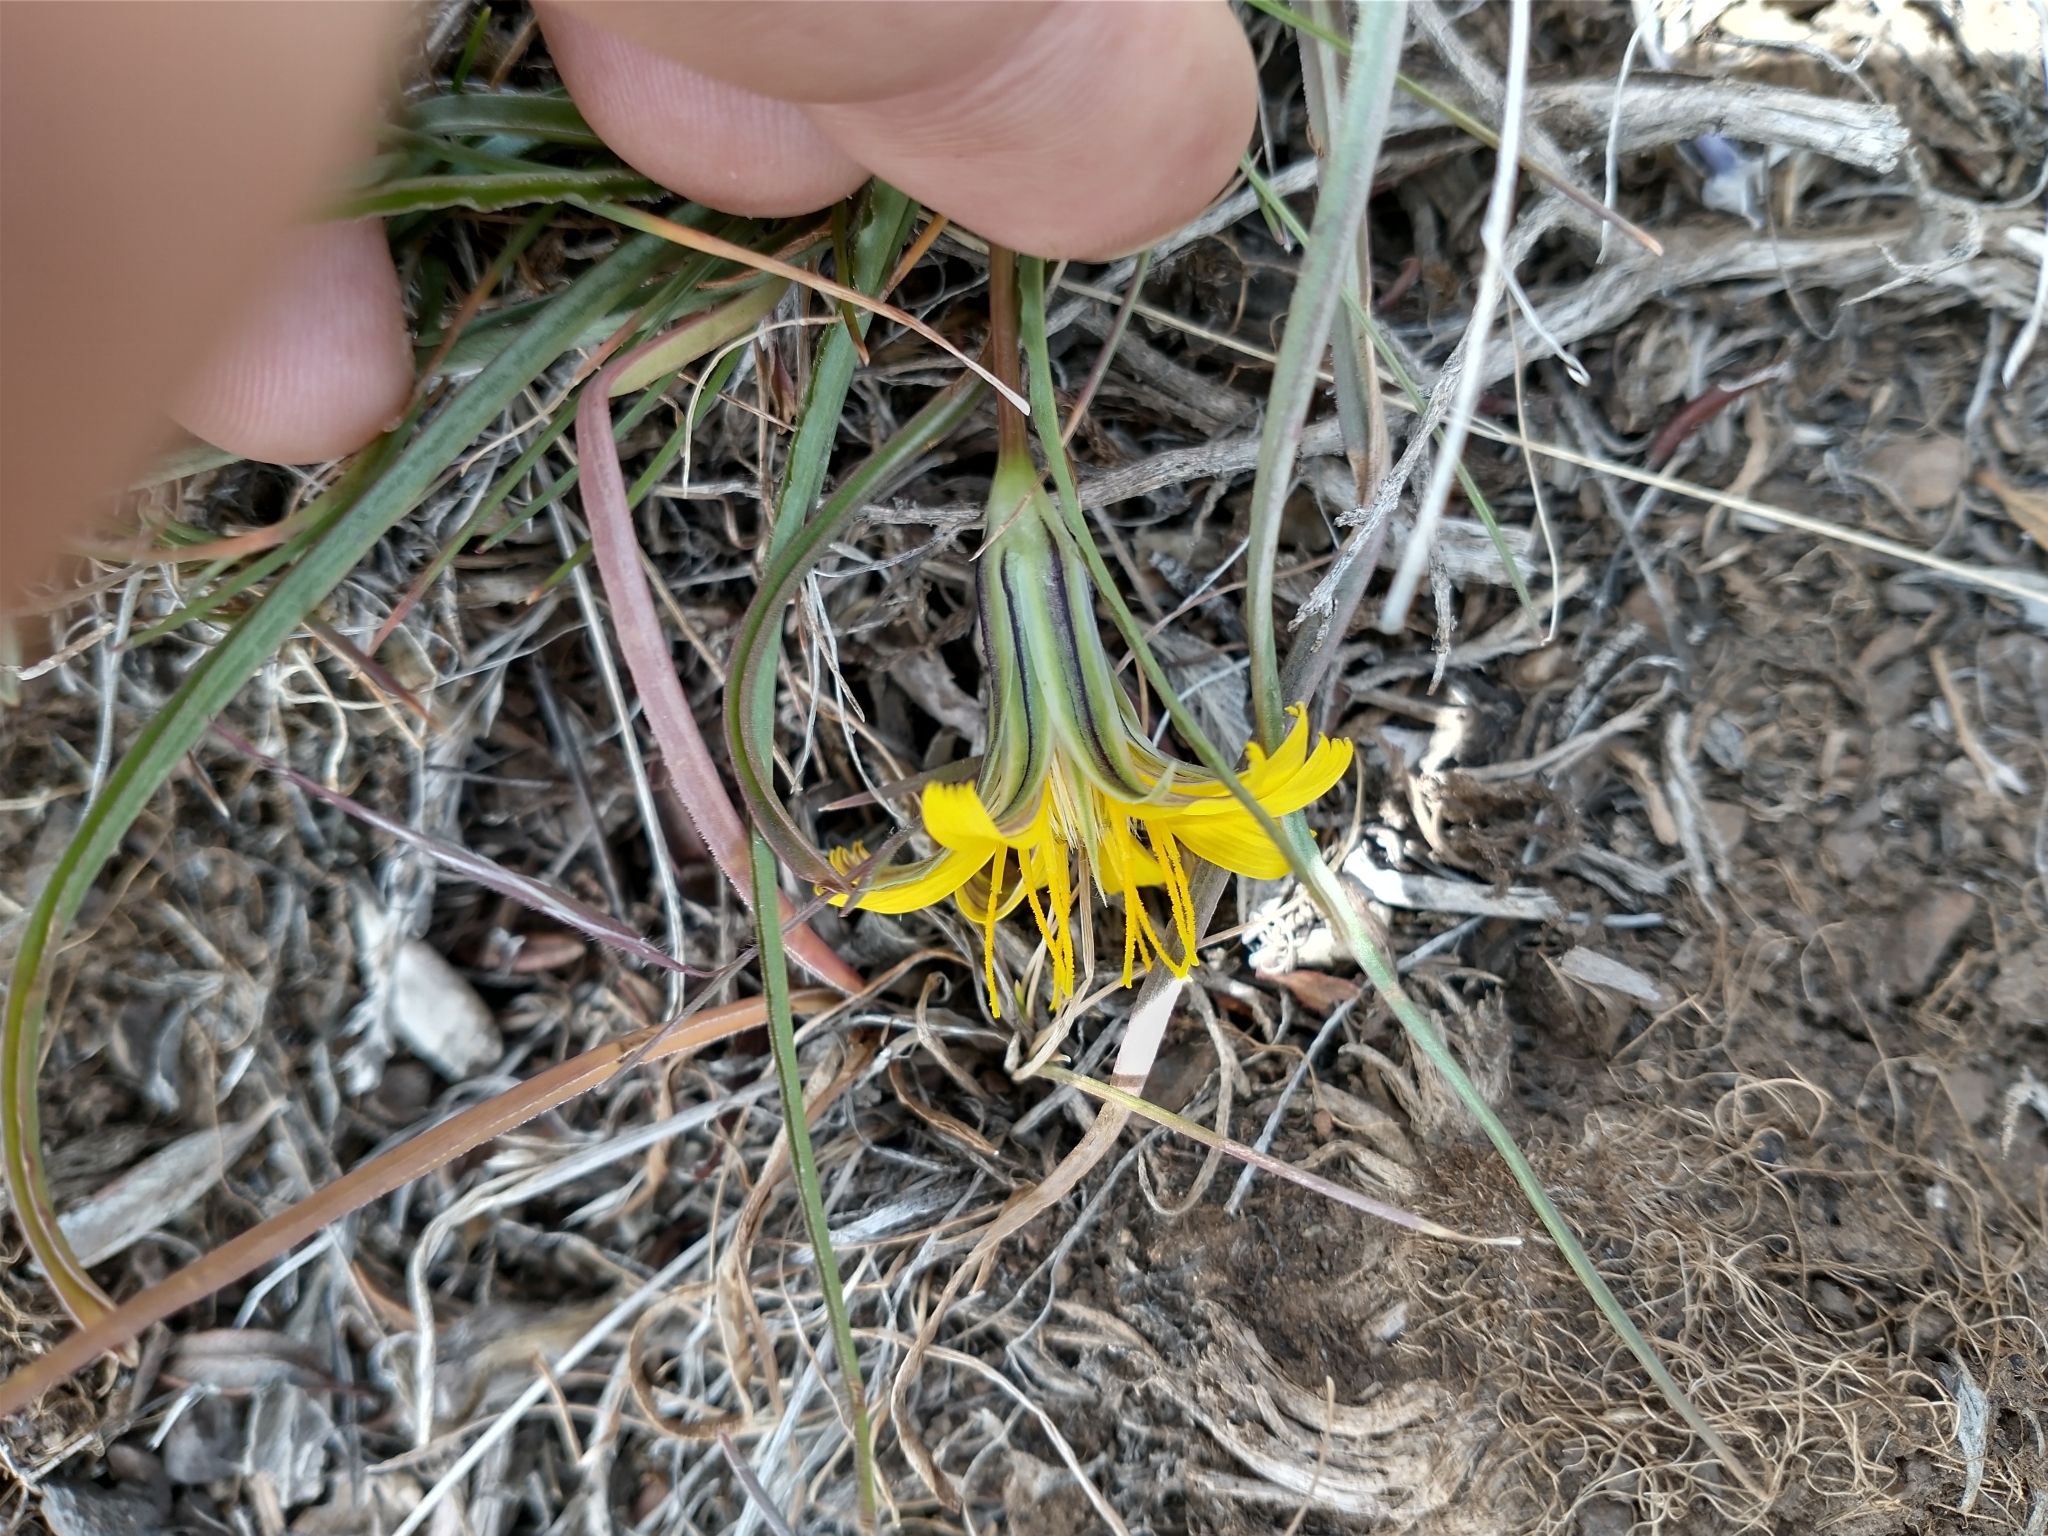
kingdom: Plantae
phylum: Tracheophyta
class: Magnoliopsida
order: Asterales
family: Asteraceae
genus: Microseris
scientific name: Microseris troximoides
